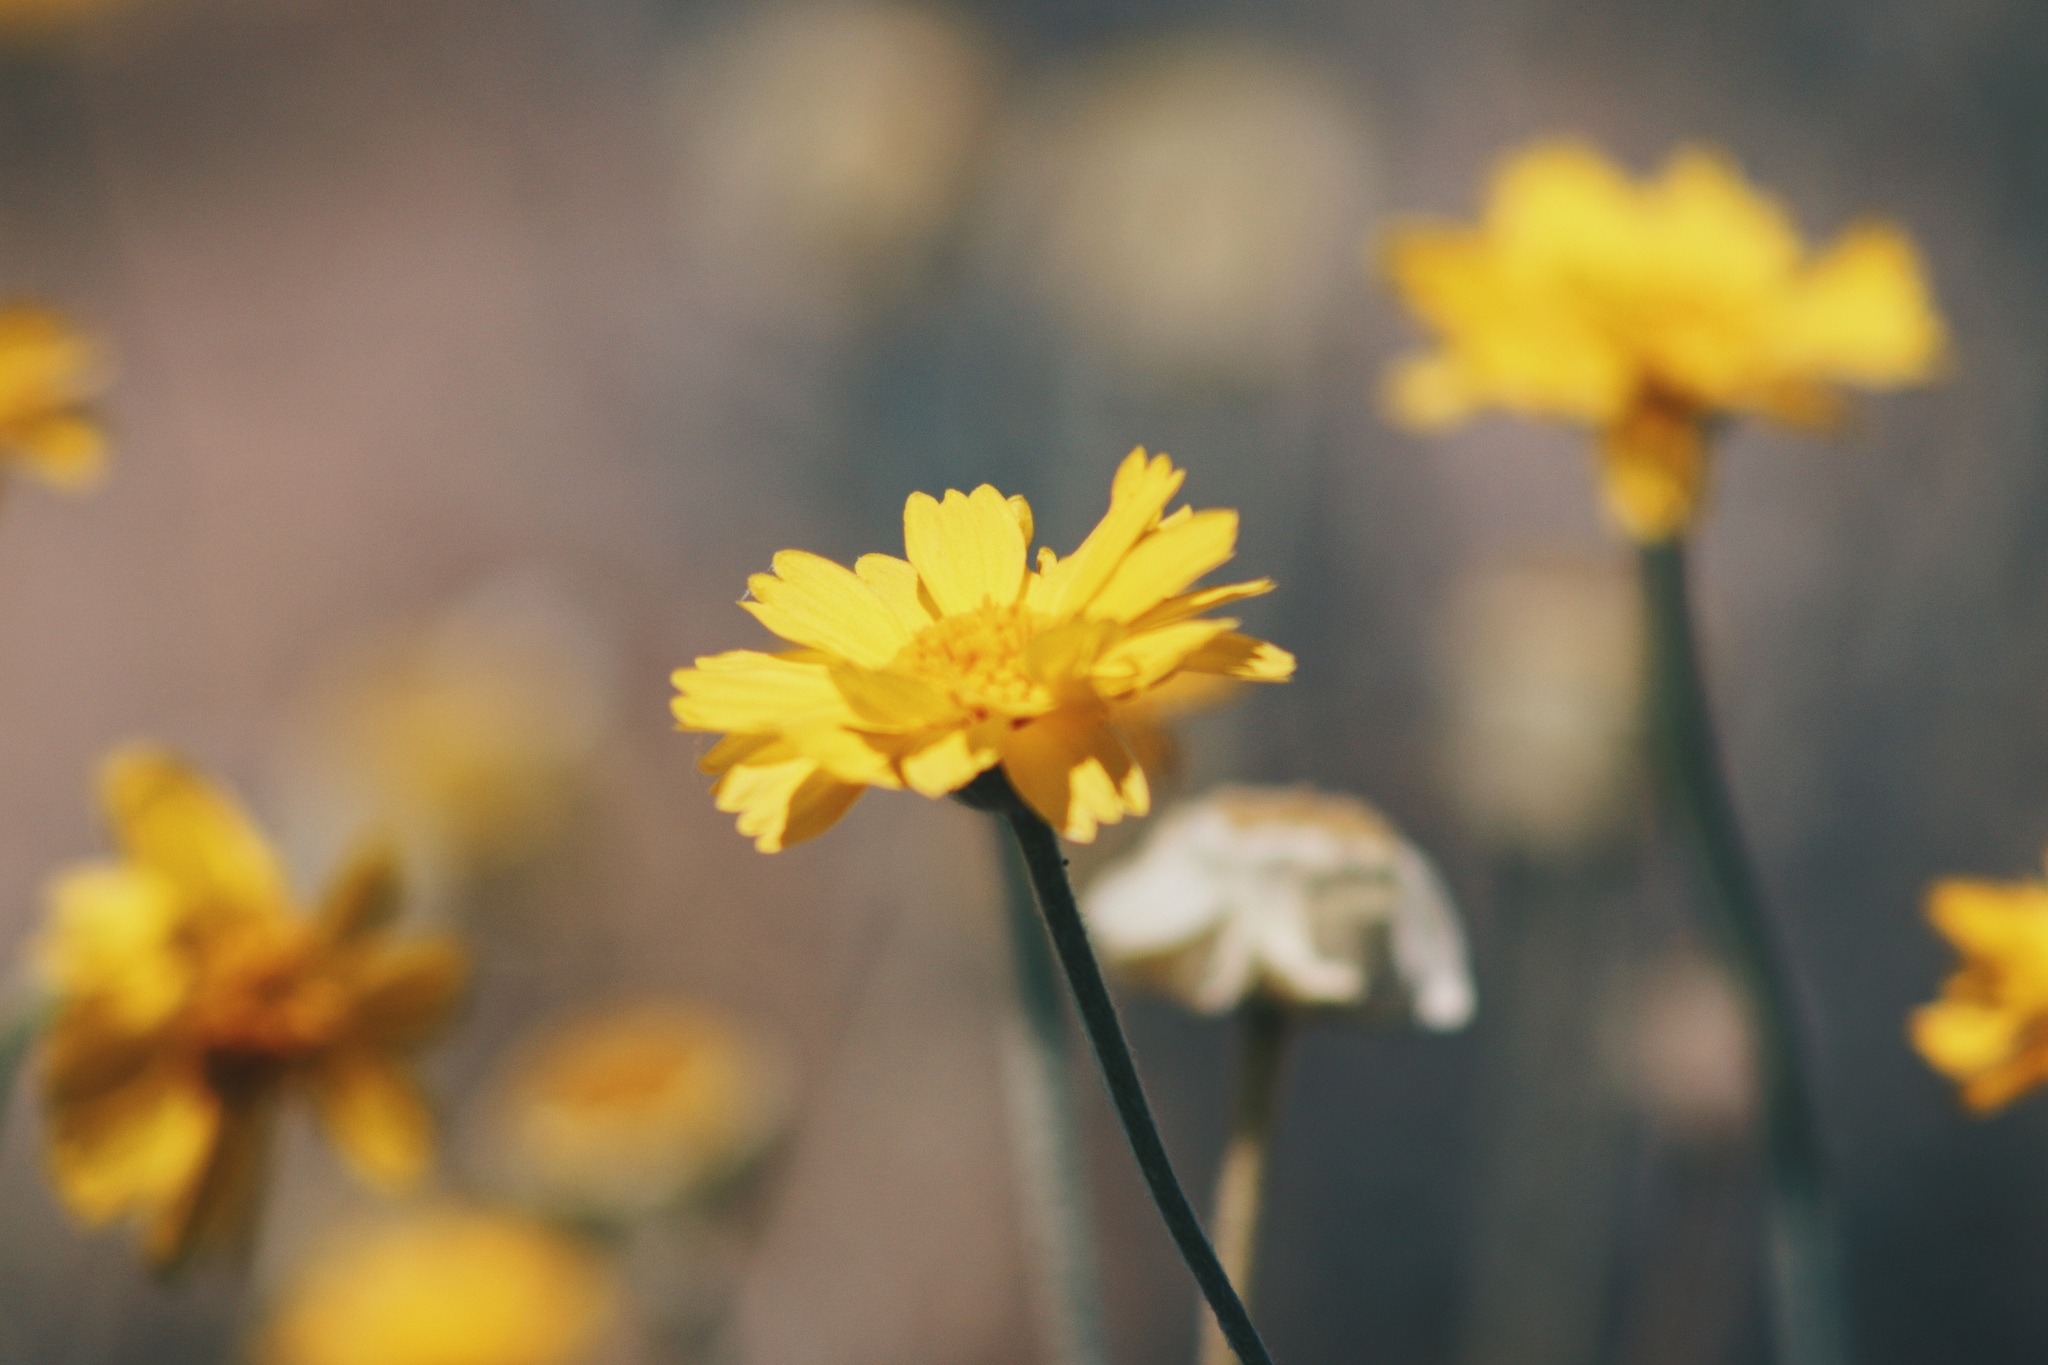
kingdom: Plantae
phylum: Tracheophyta
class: Magnoliopsida
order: Asterales
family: Asteraceae
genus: Baileya
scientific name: Baileya multiradiata
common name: Desert-marigold
